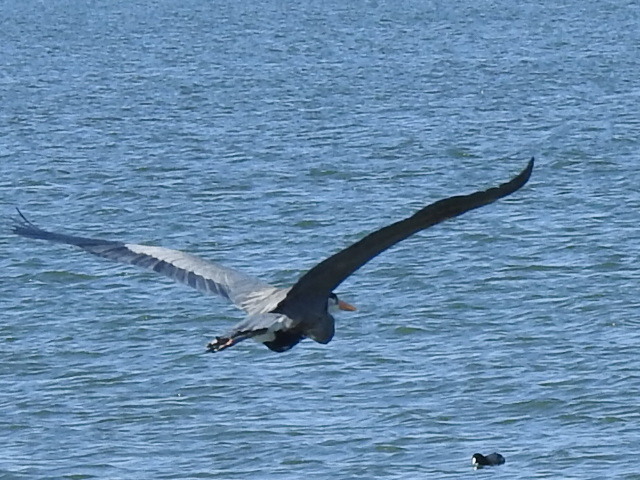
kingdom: Animalia
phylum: Chordata
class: Aves
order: Pelecaniformes
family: Ardeidae
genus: Ardea
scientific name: Ardea herodias
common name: Great blue heron
